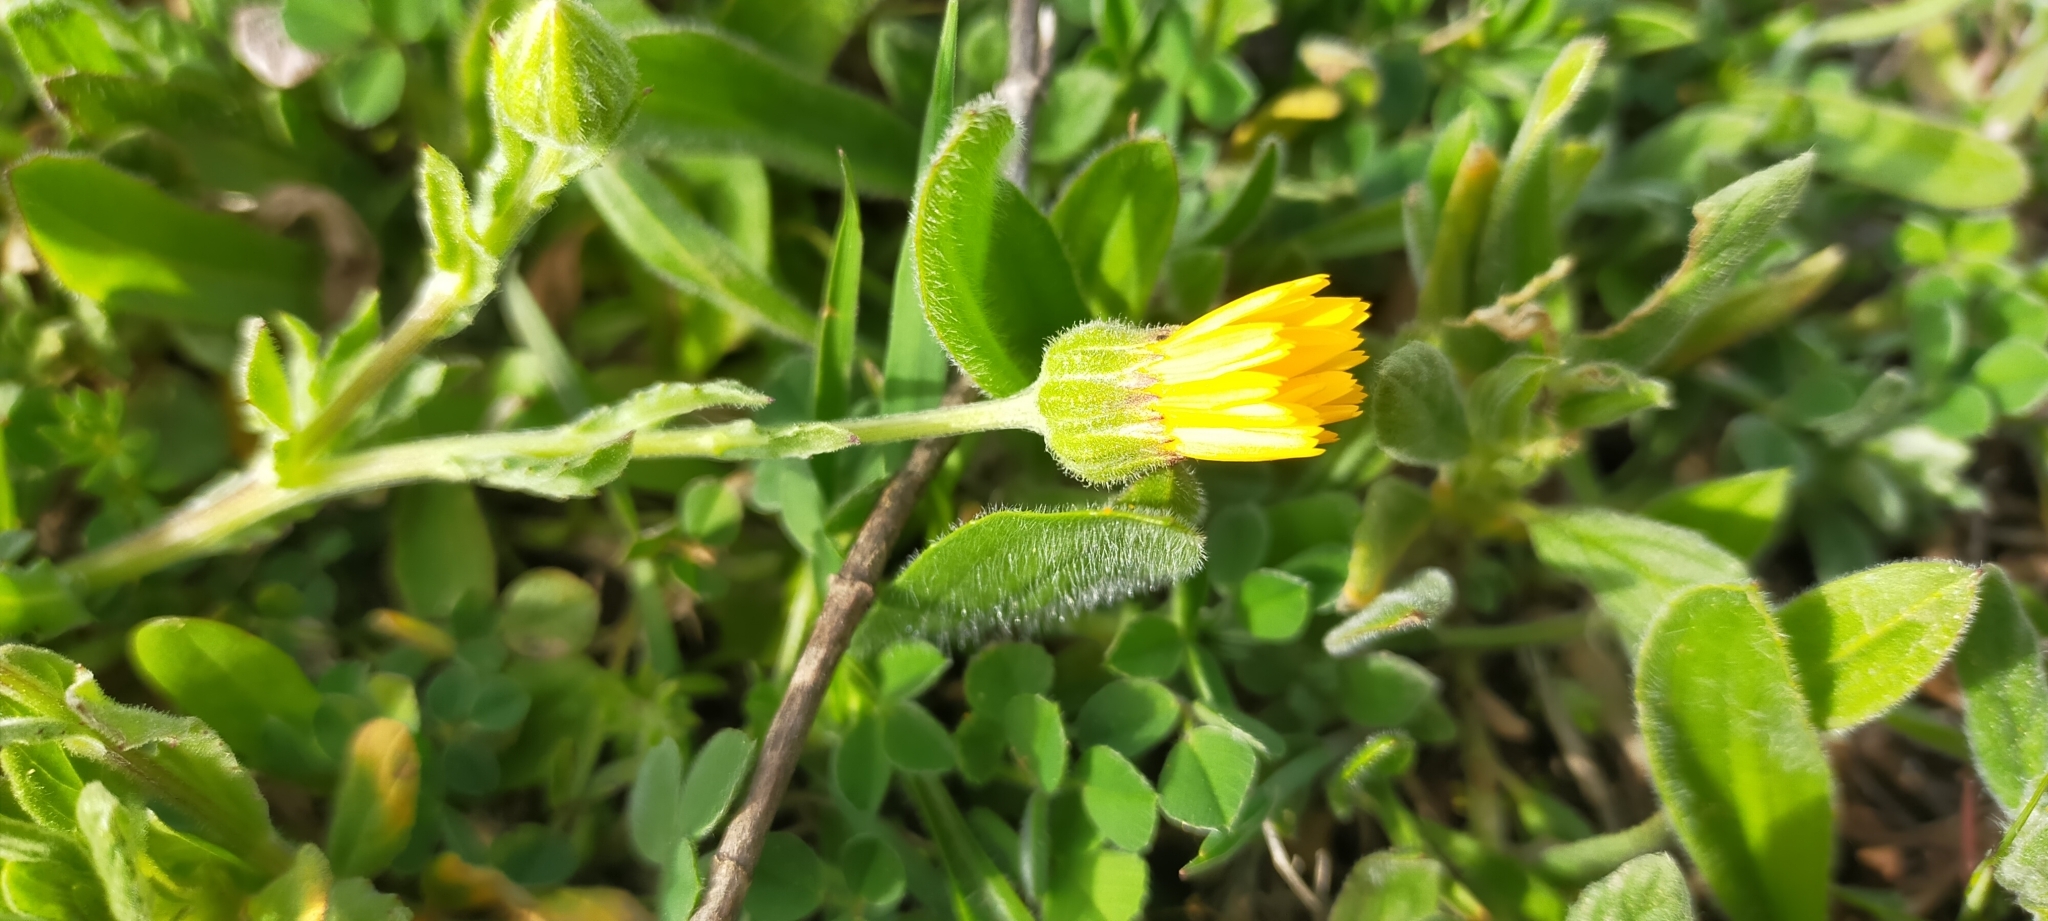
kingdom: Plantae
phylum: Tracheophyta
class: Magnoliopsida
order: Asterales
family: Asteraceae
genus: Calendula
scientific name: Calendula arvensis
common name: Field marigold
